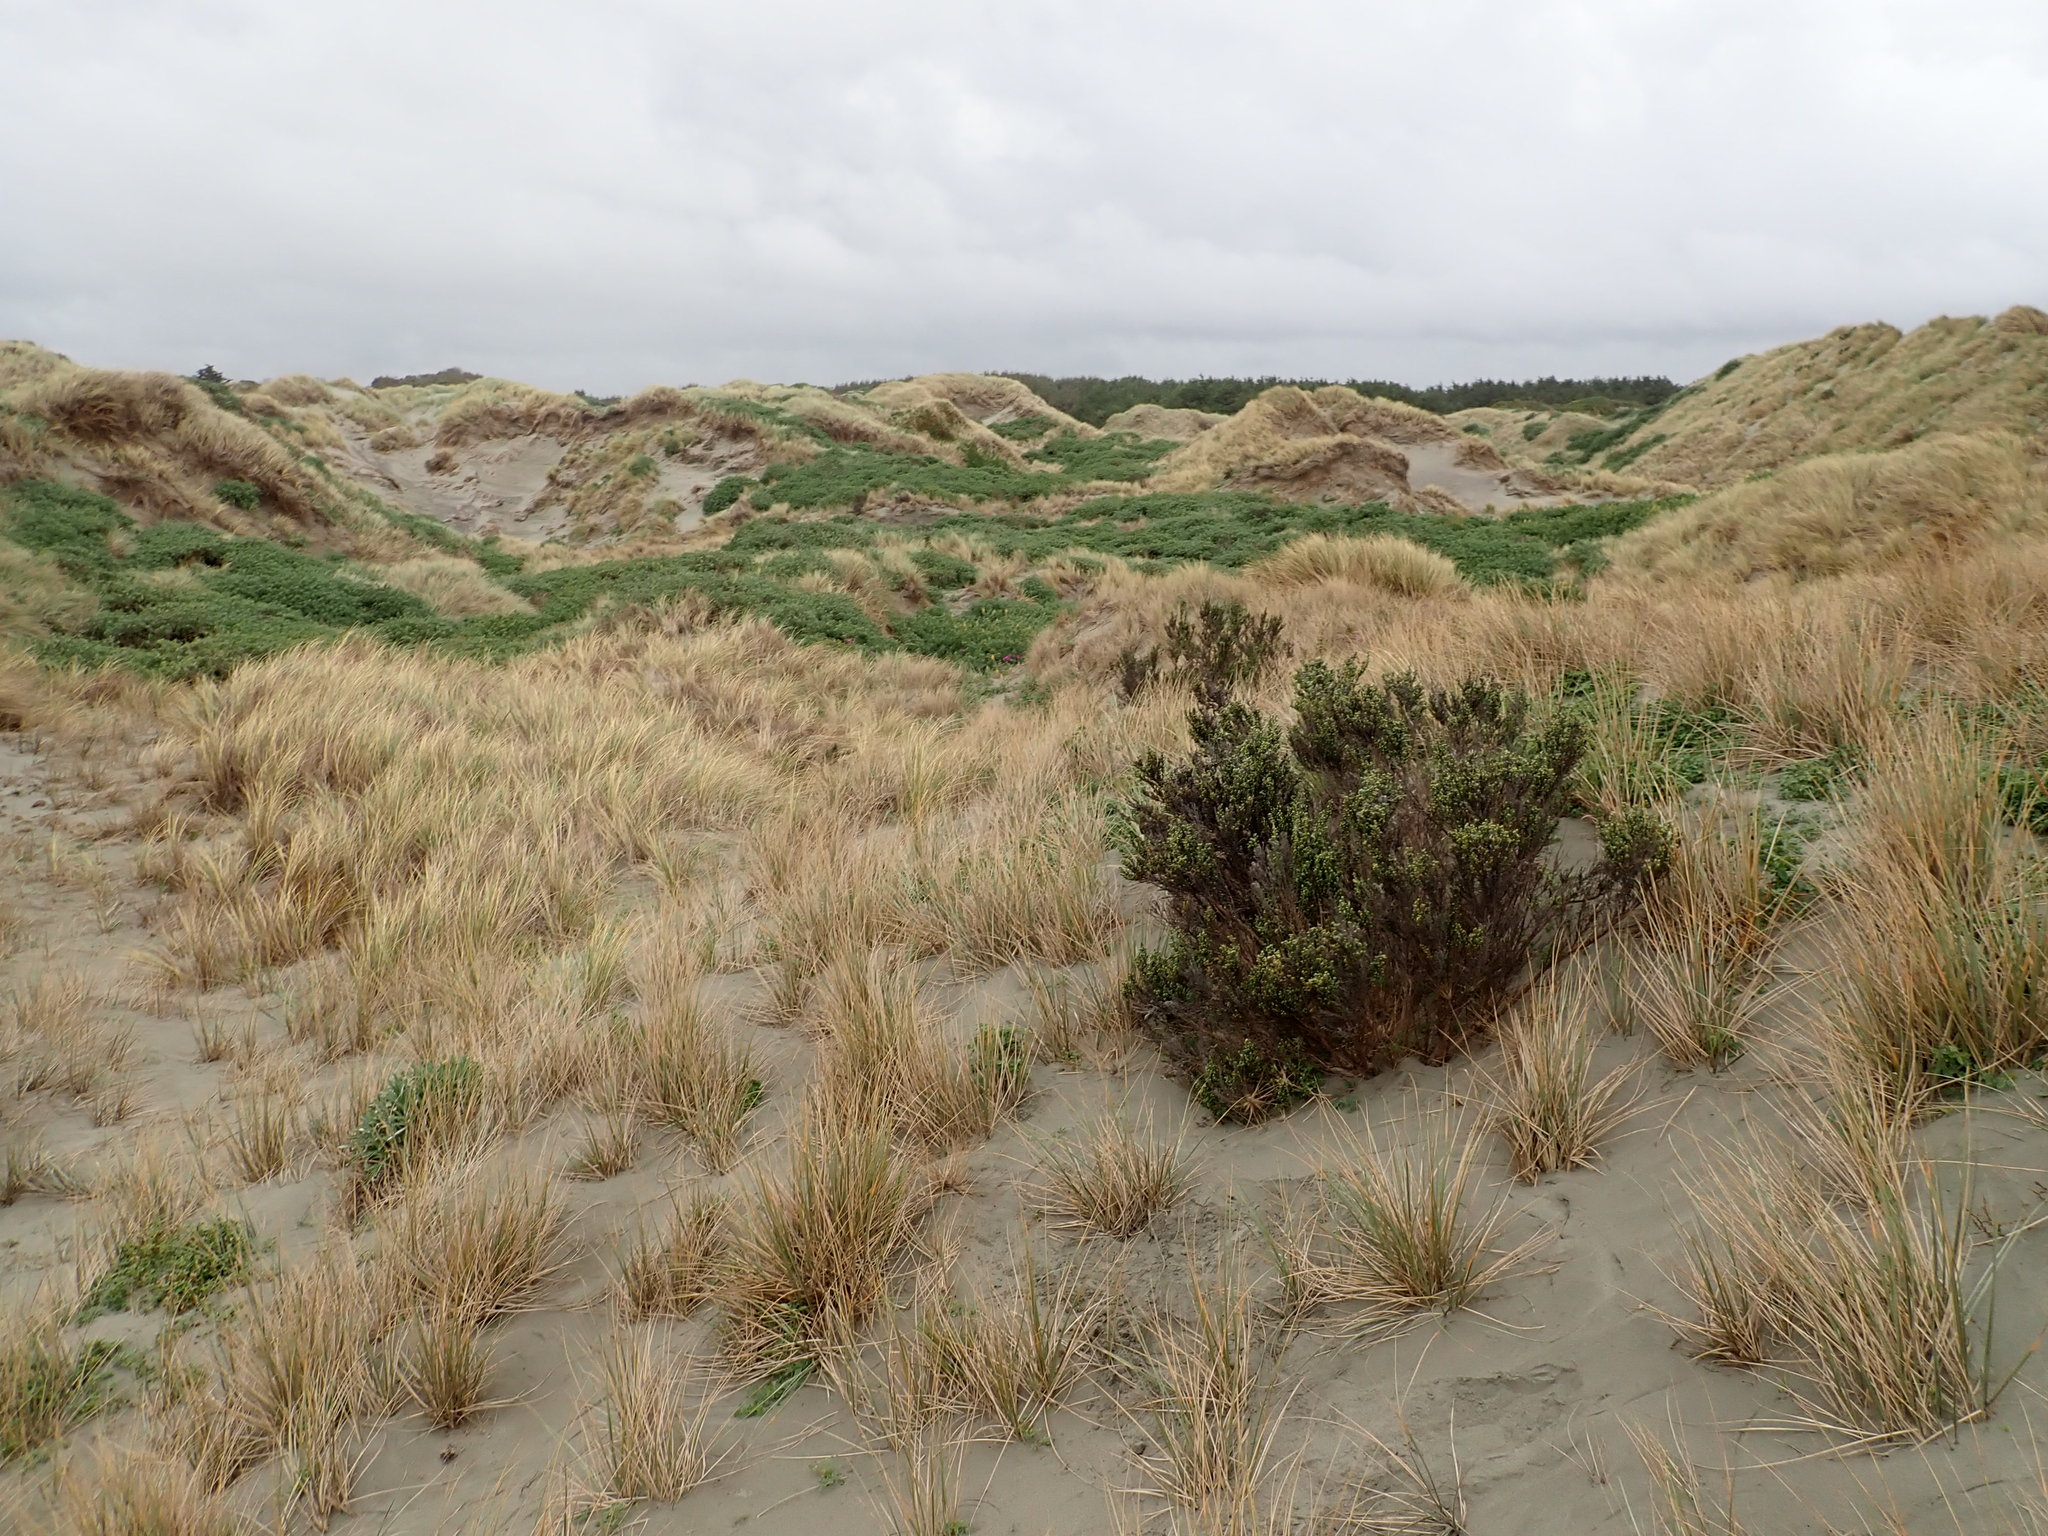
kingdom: Plantae
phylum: Tracheophyta
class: Magnoliopsida
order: Asterales
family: Asteraceae
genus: Ozothamnus
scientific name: Ozothamnus leptophyllus
